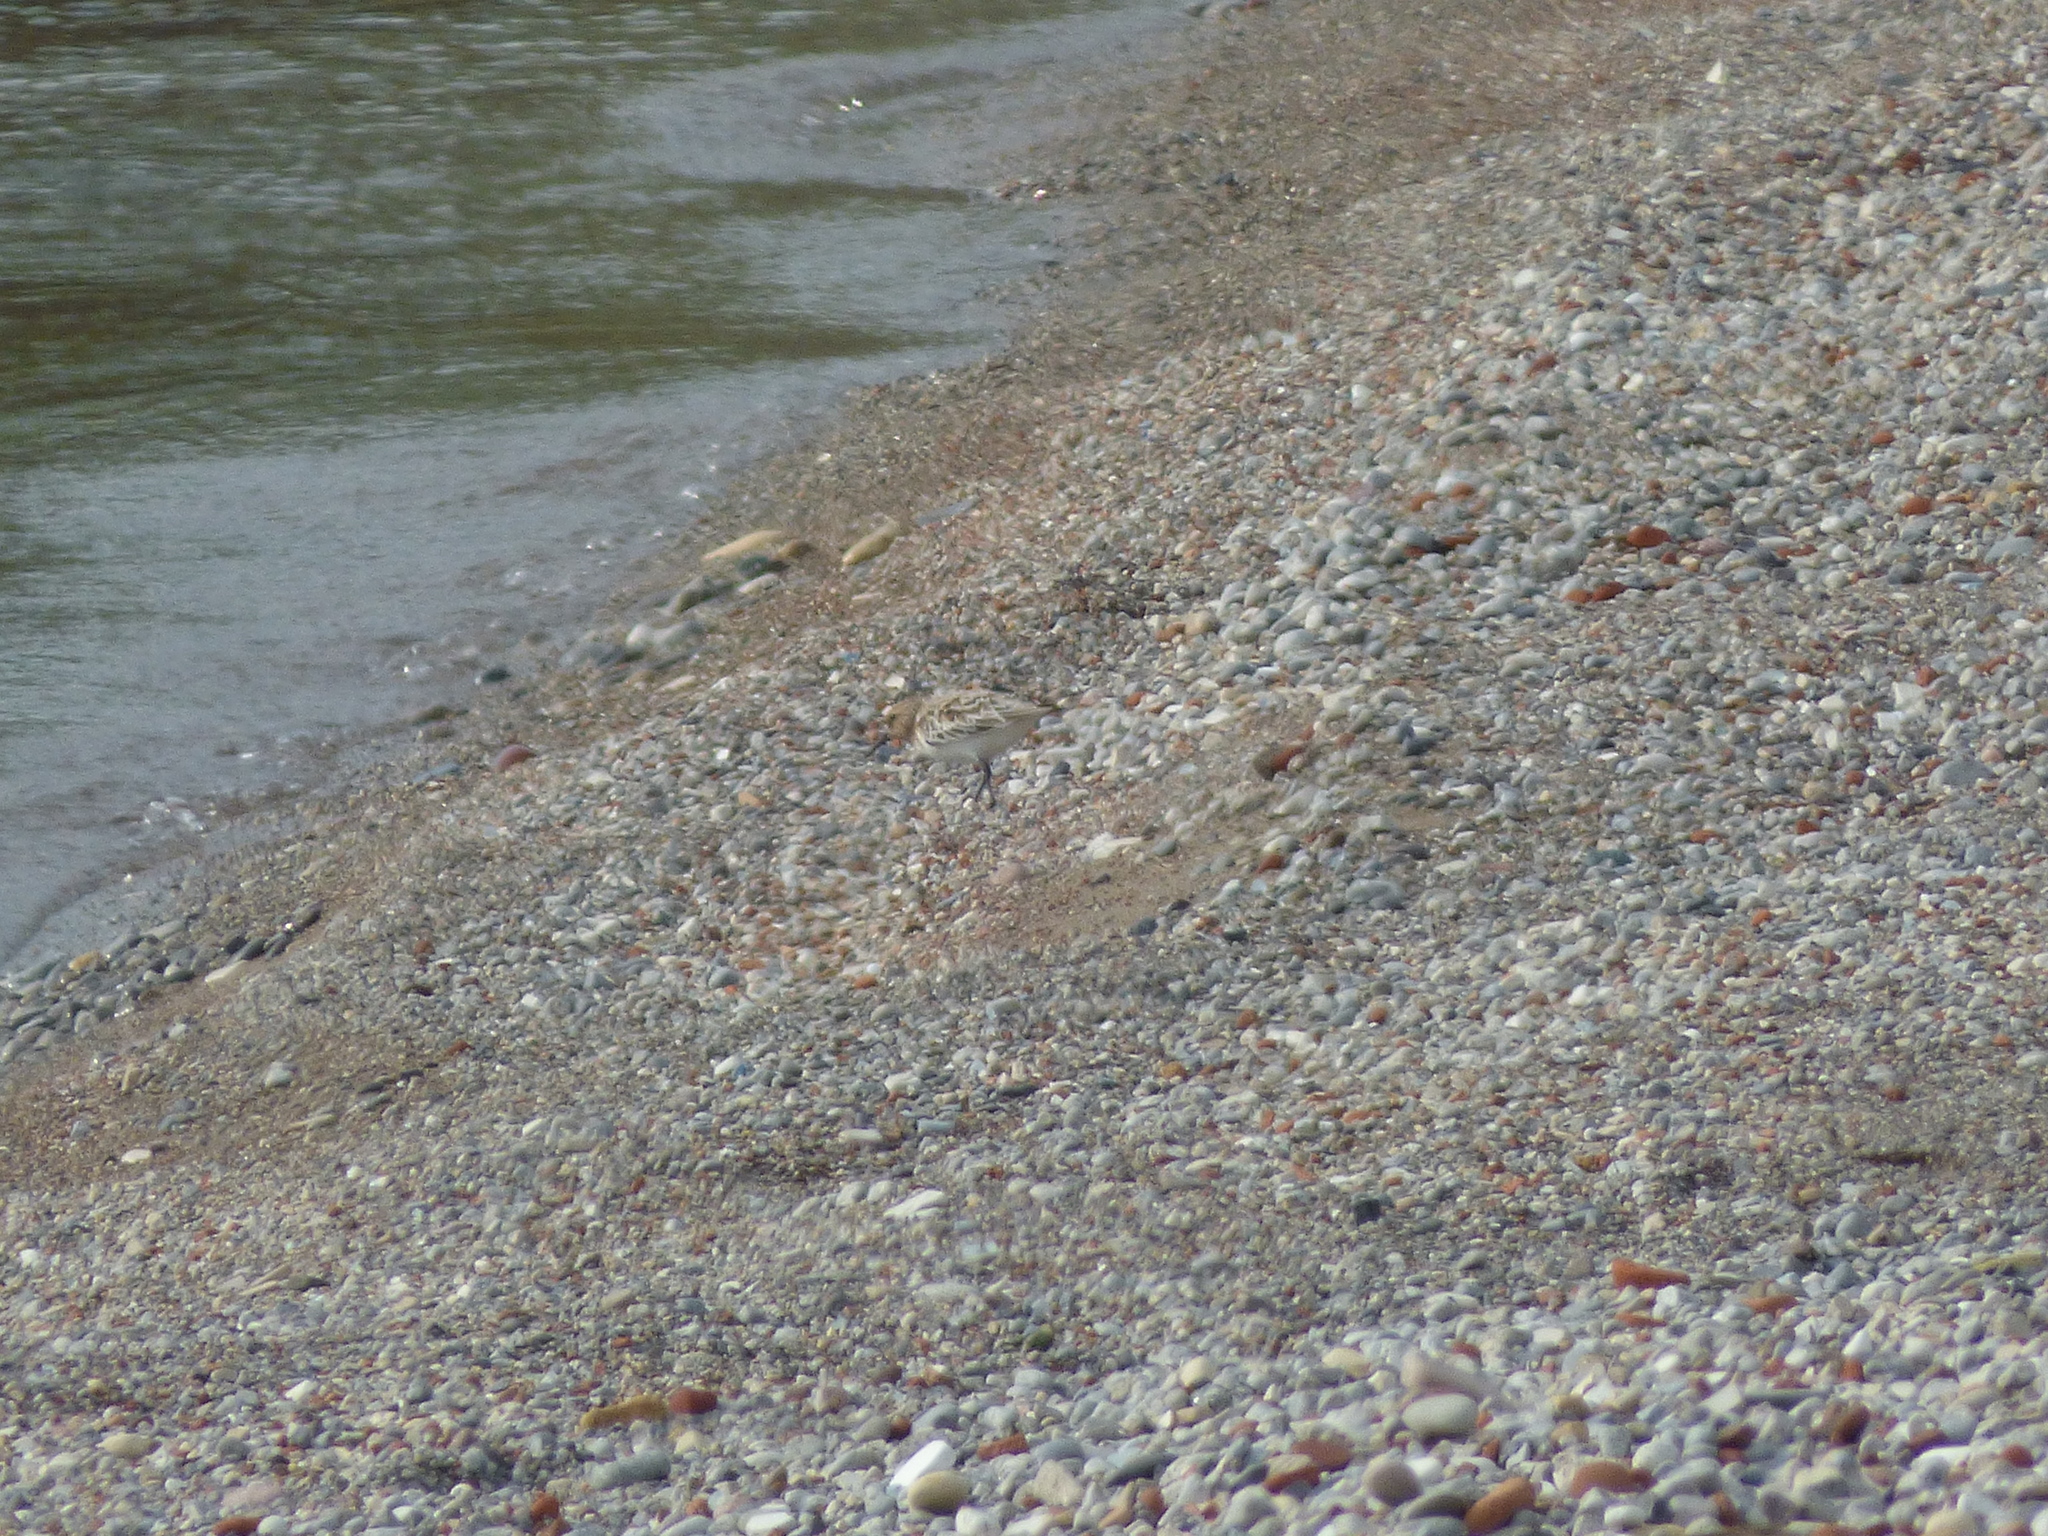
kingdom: Animalia
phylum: Chordata
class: Aves
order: Charadriiformes
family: Scolopacidae
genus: Calidris
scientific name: Calidris alba
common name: Sanderling
